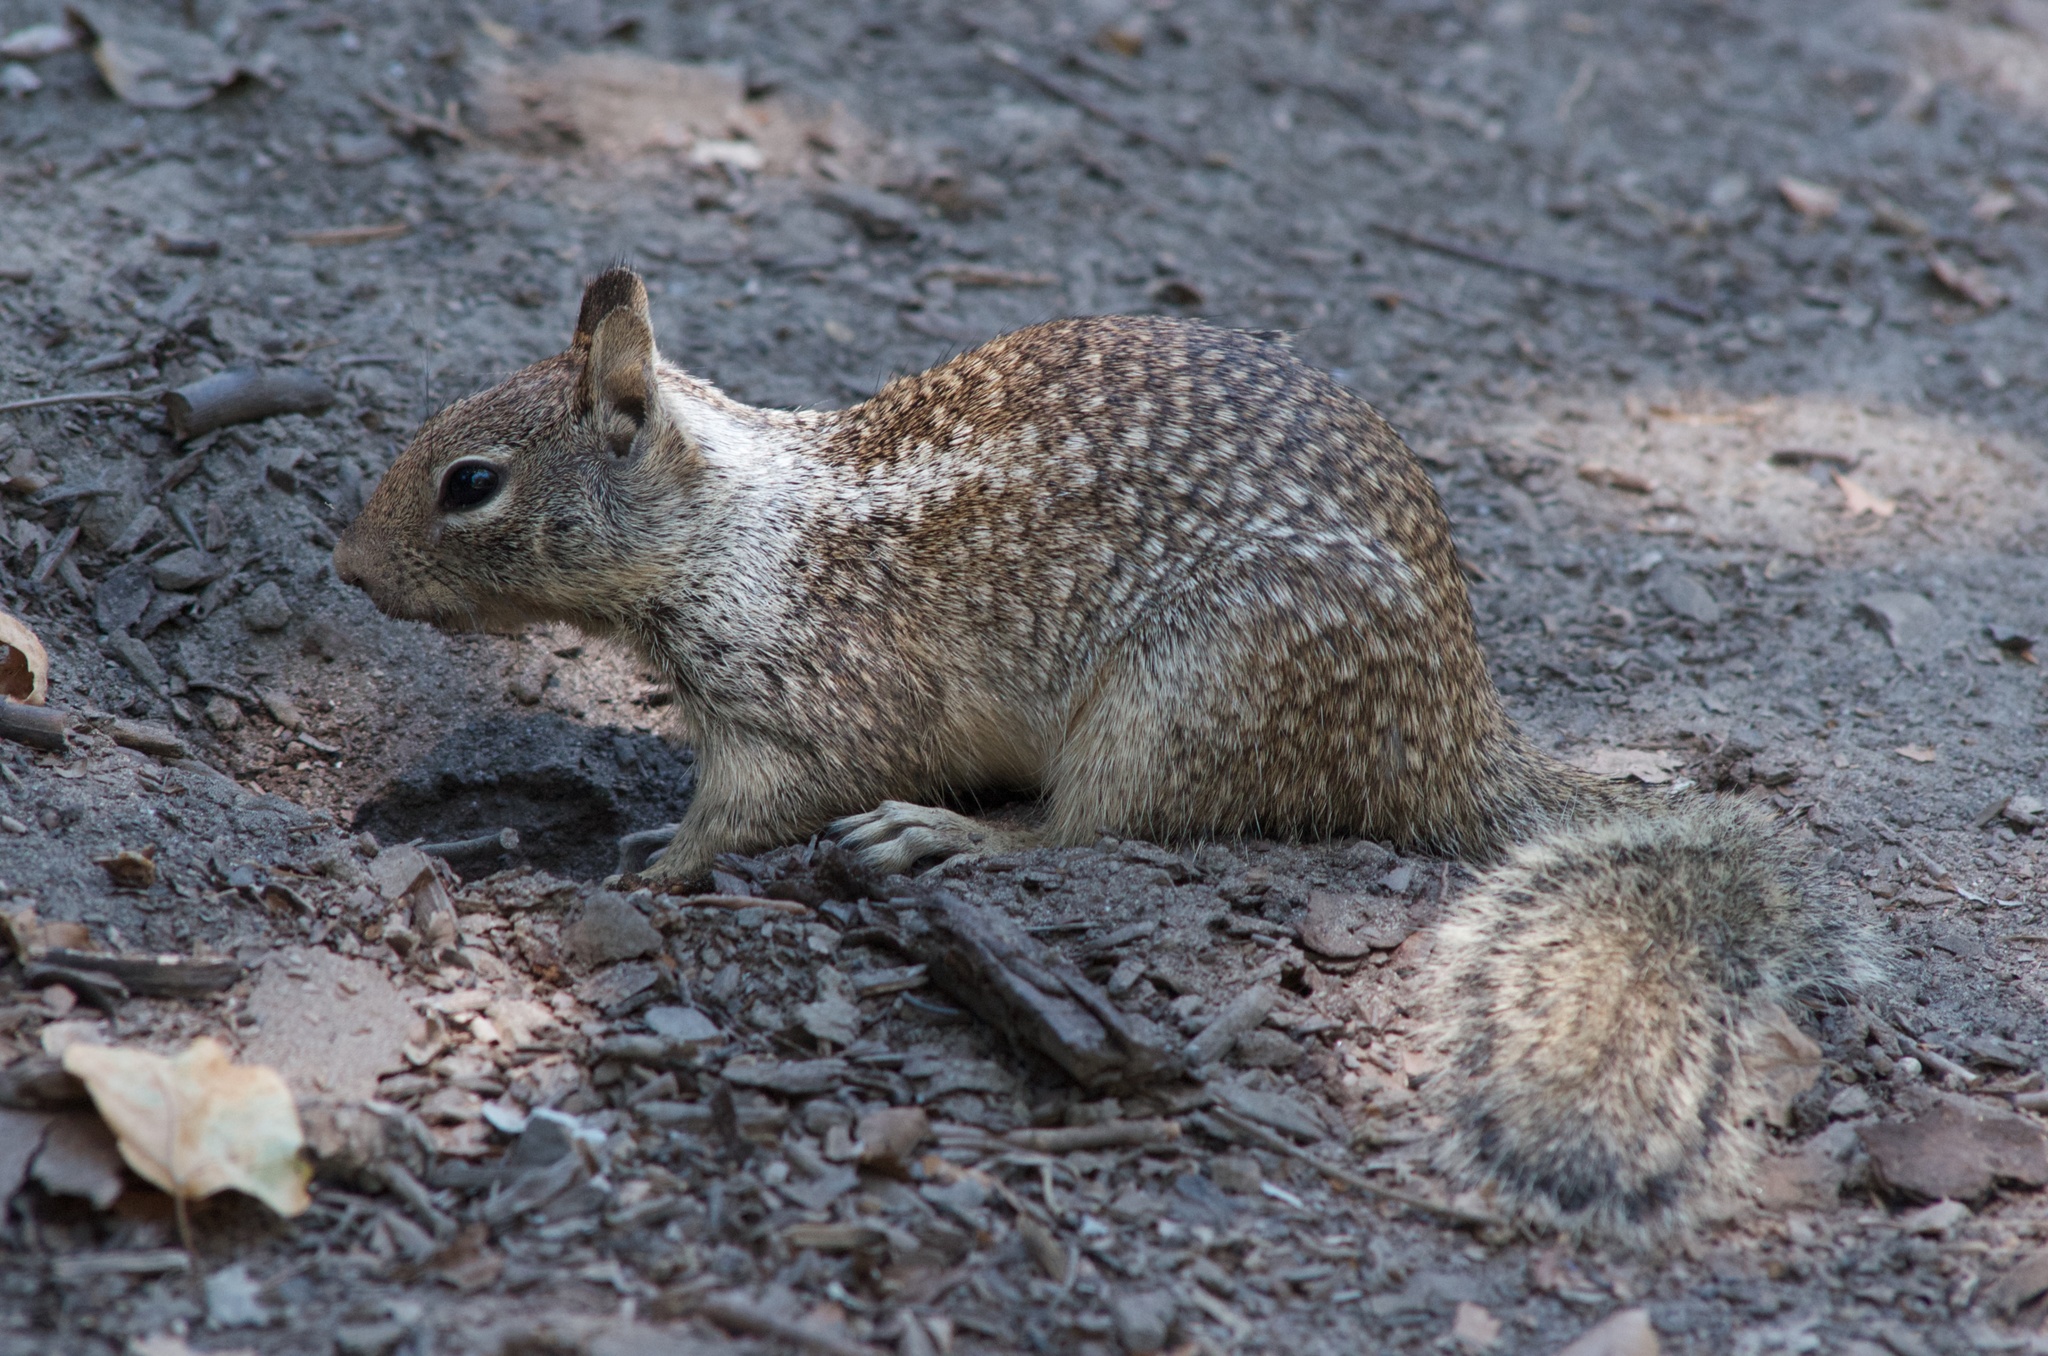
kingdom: Animalia
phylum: Chordata
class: Mammalia
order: Rodentia
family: Sciuridae
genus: Otospermophilus
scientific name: Otospermophilus beecheyi
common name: California ground squirrel
